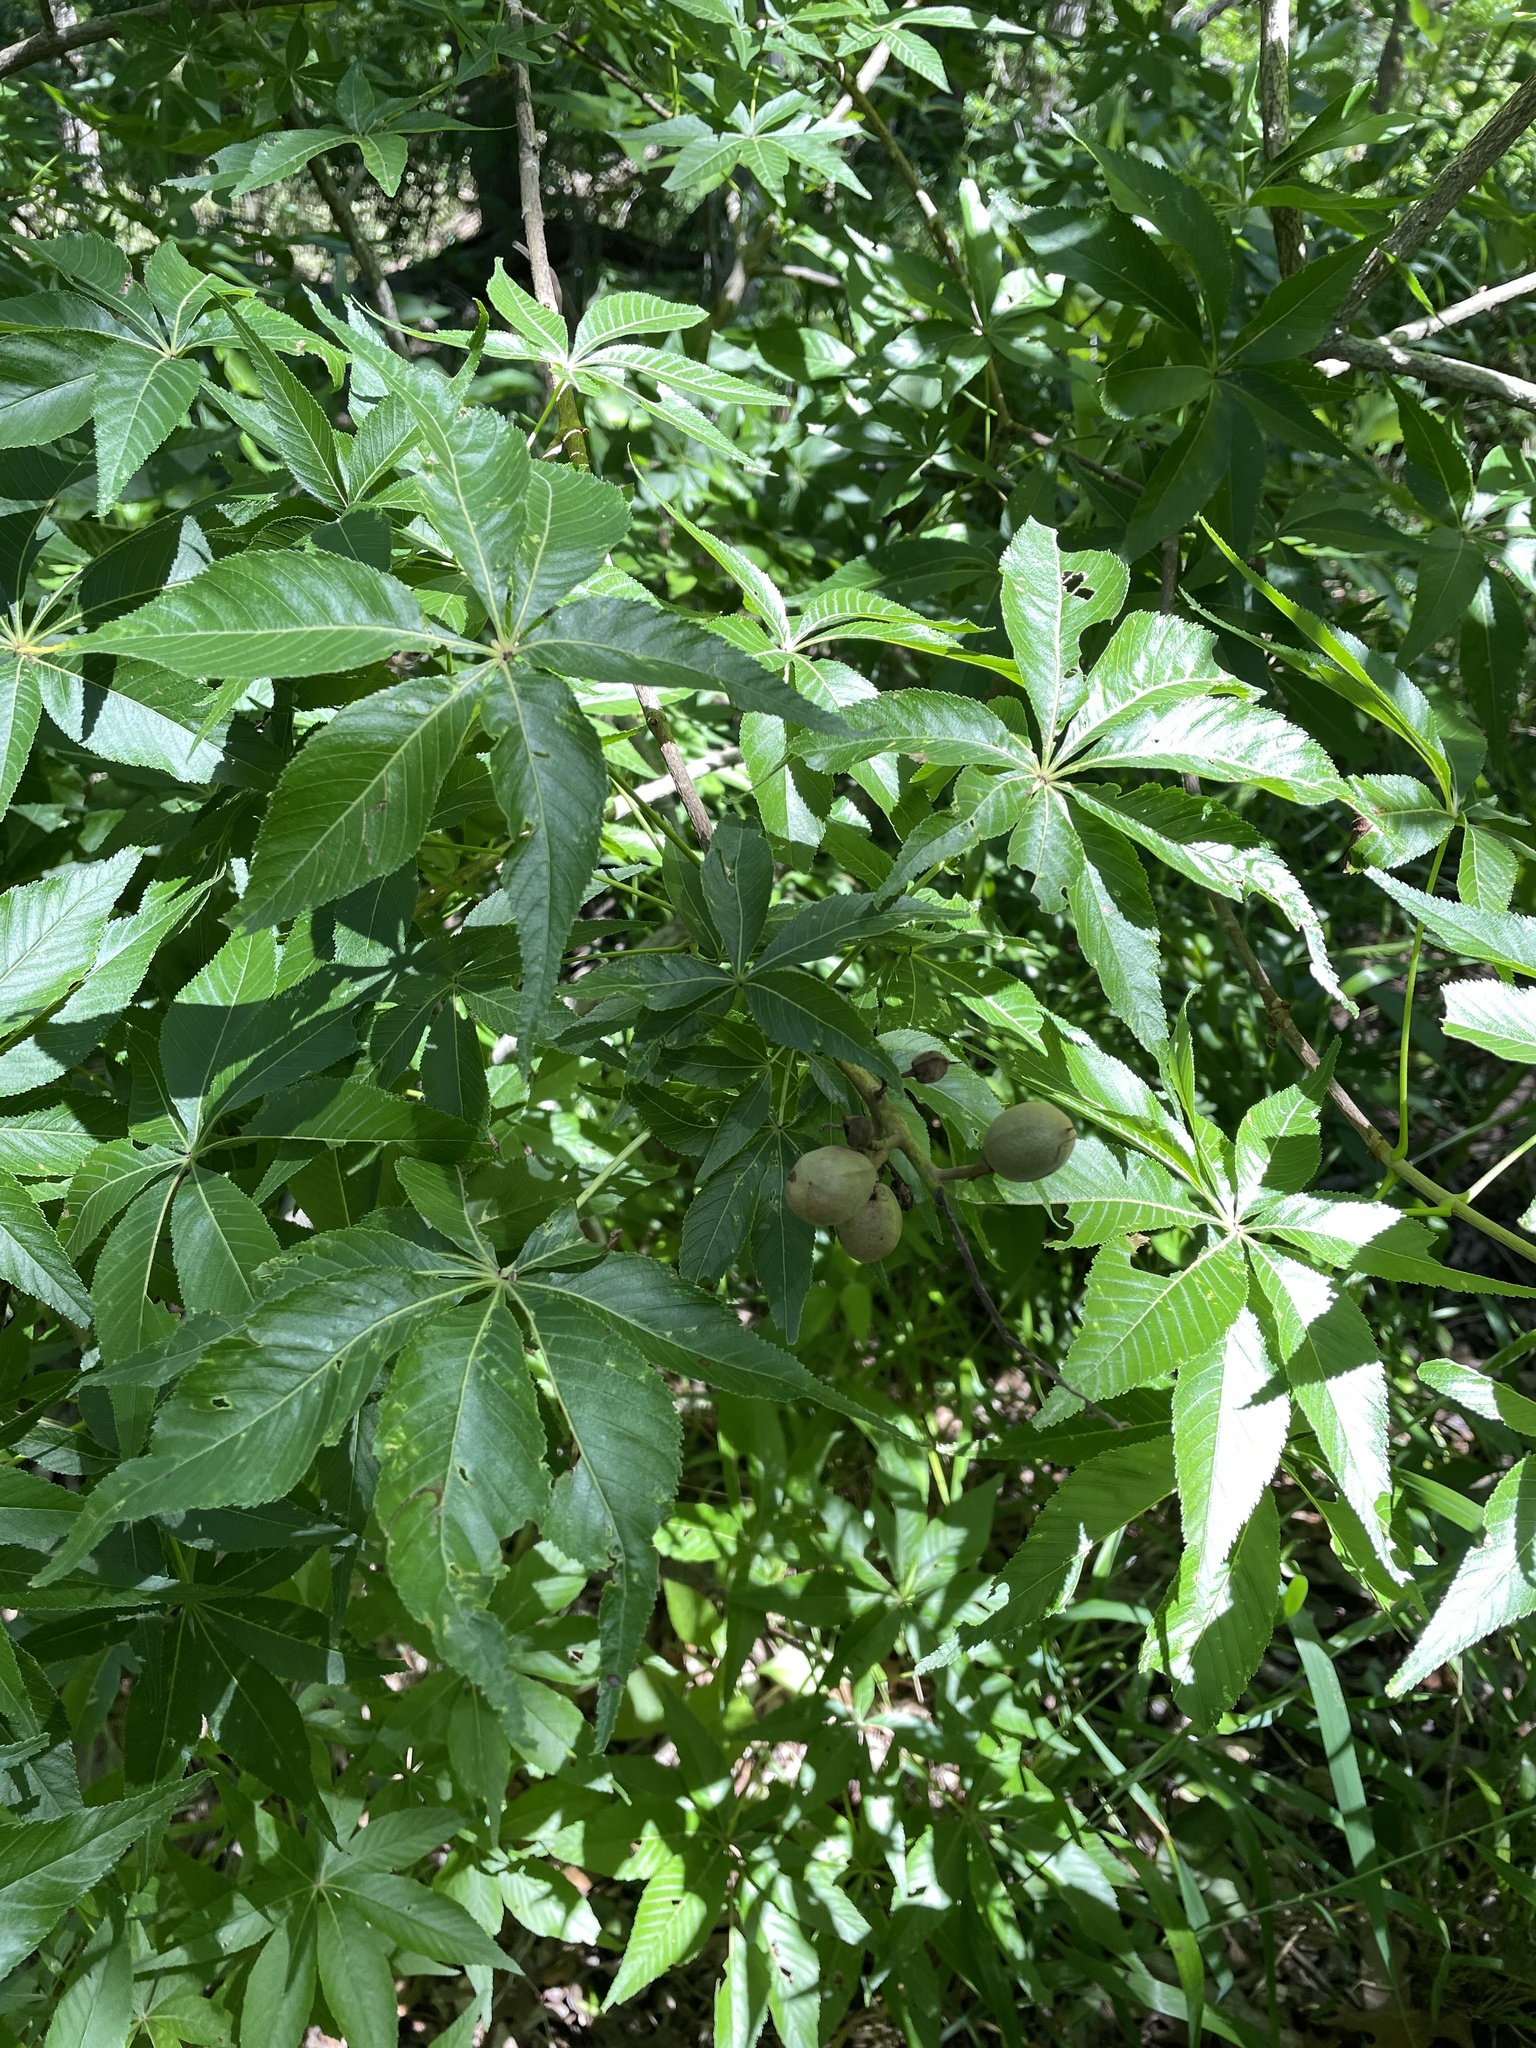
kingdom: Plantae
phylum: Tracheophyta
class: Magnoliopsida
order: Sapindales
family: Sapindaceae
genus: Aesculus
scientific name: Aesculus glabra
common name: Ohio buckeye
